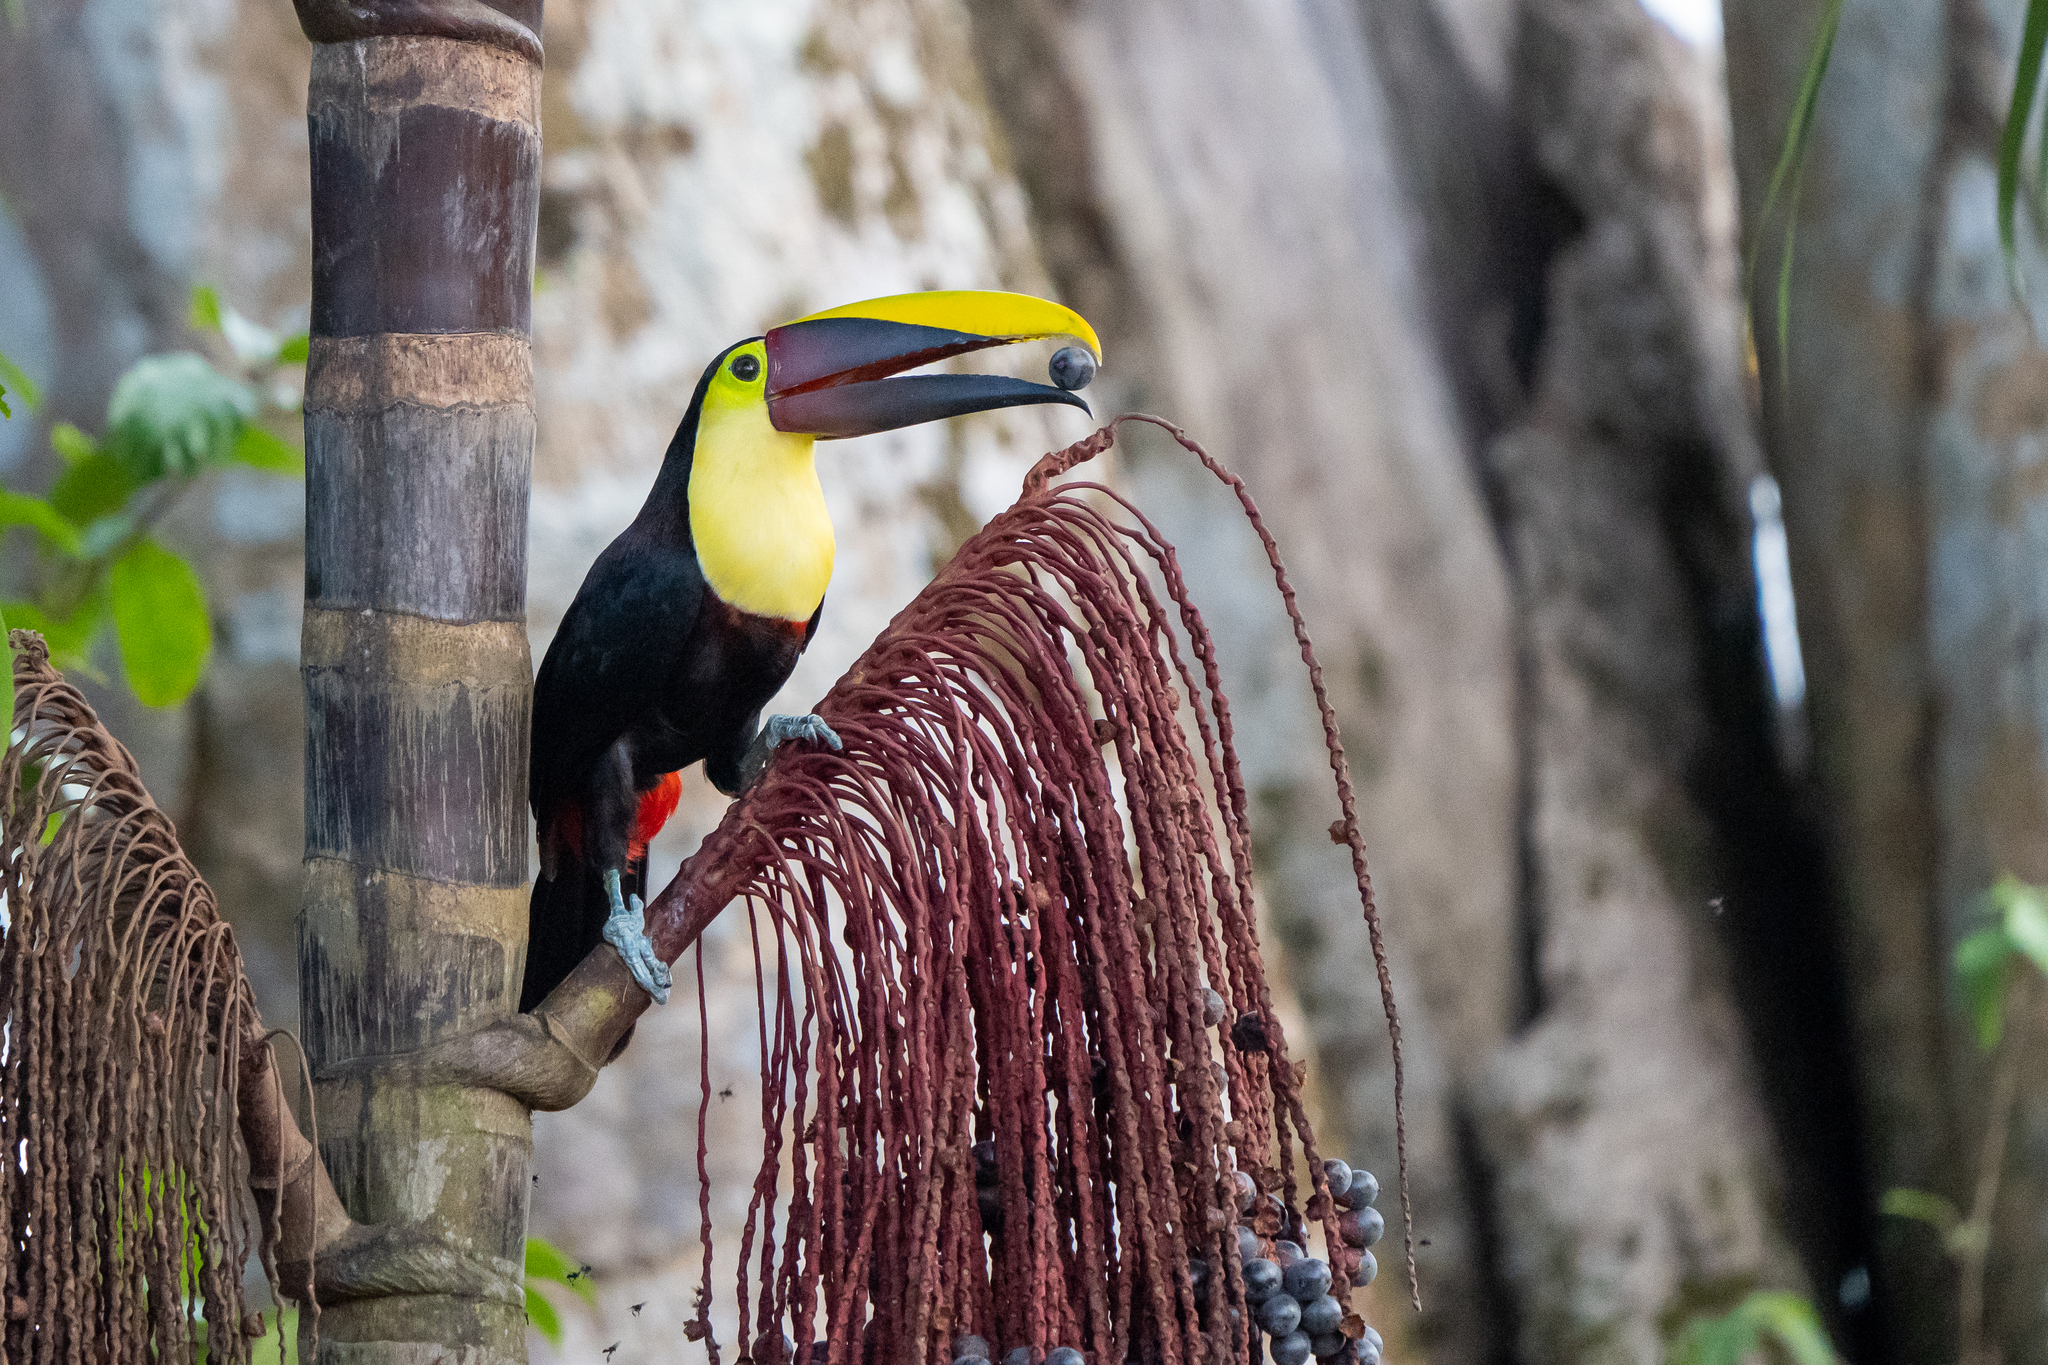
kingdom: Animalia
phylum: Chordata
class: Aves
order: Piciformes
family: Ramphastidae
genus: Ramphastos
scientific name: Ramphastos ambiguus
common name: Yellow-throated toucan
